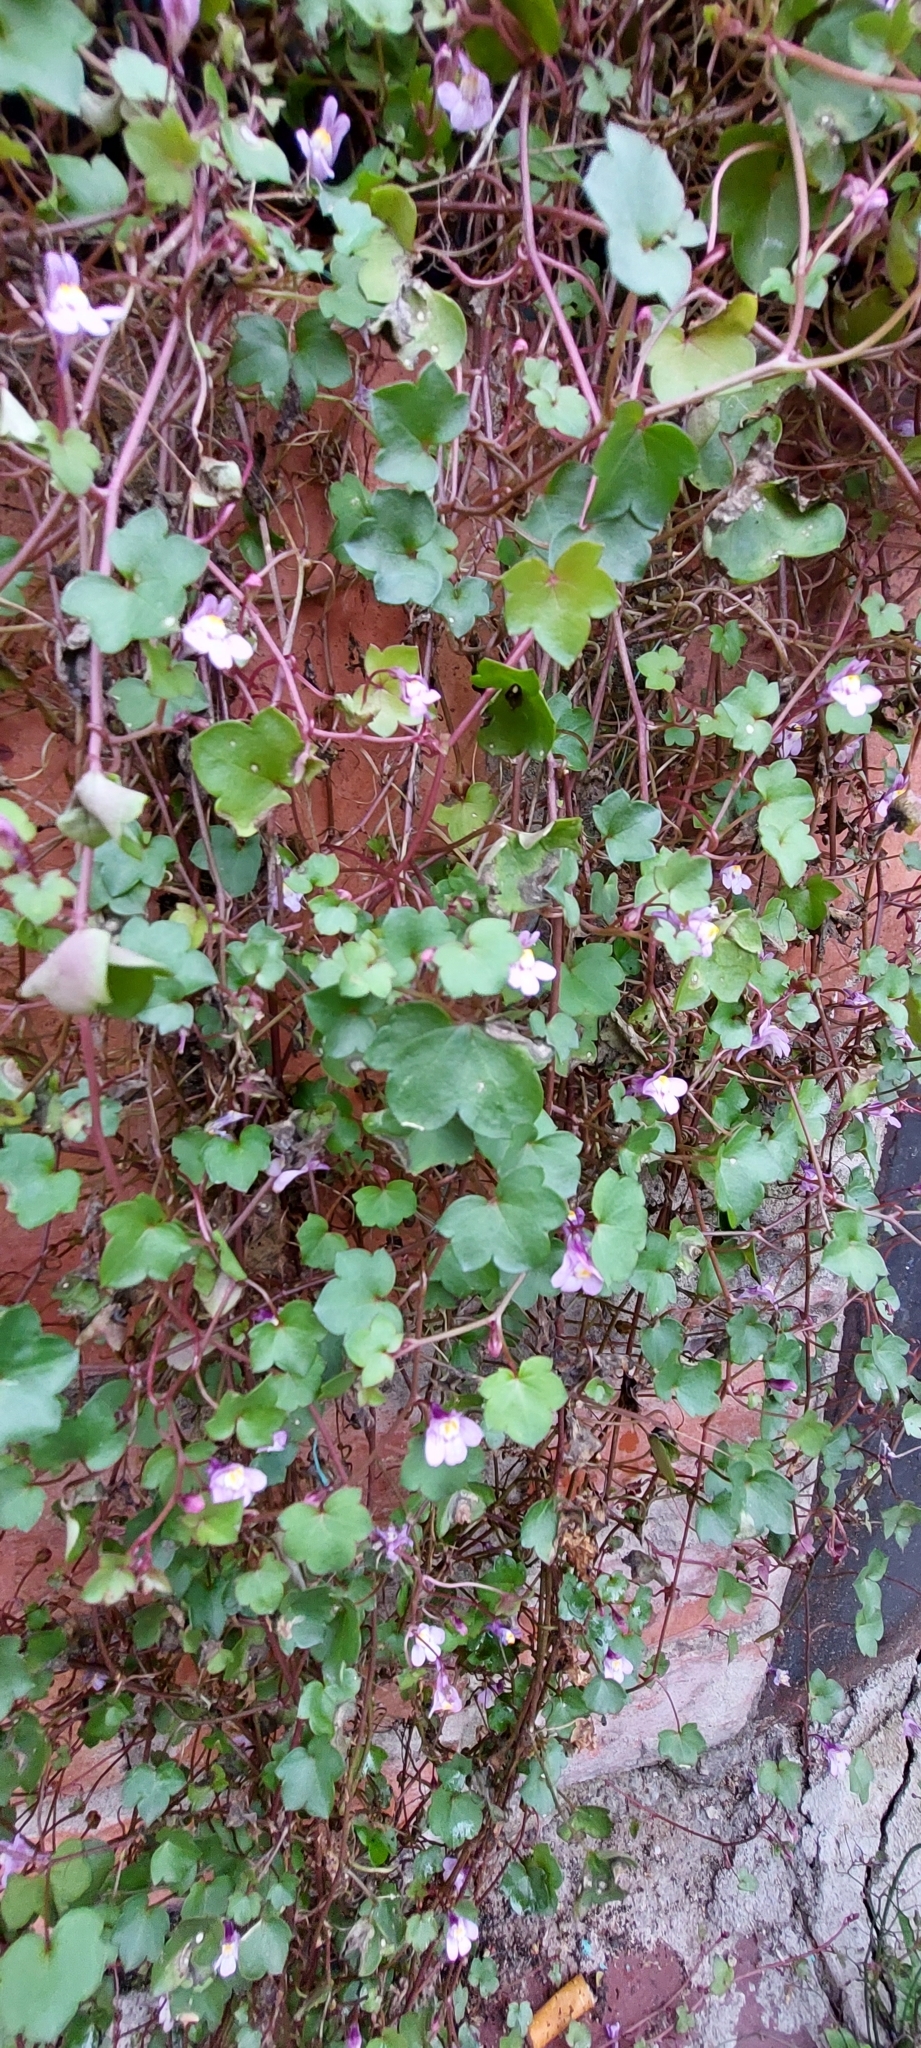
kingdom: Plantae
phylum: Tracheophyta
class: Magnoliopsida
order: Lamiales
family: Plantaginaceae
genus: Cymbalaria
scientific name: Cymbalaria muralis
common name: Ivy-leaved toadflax
